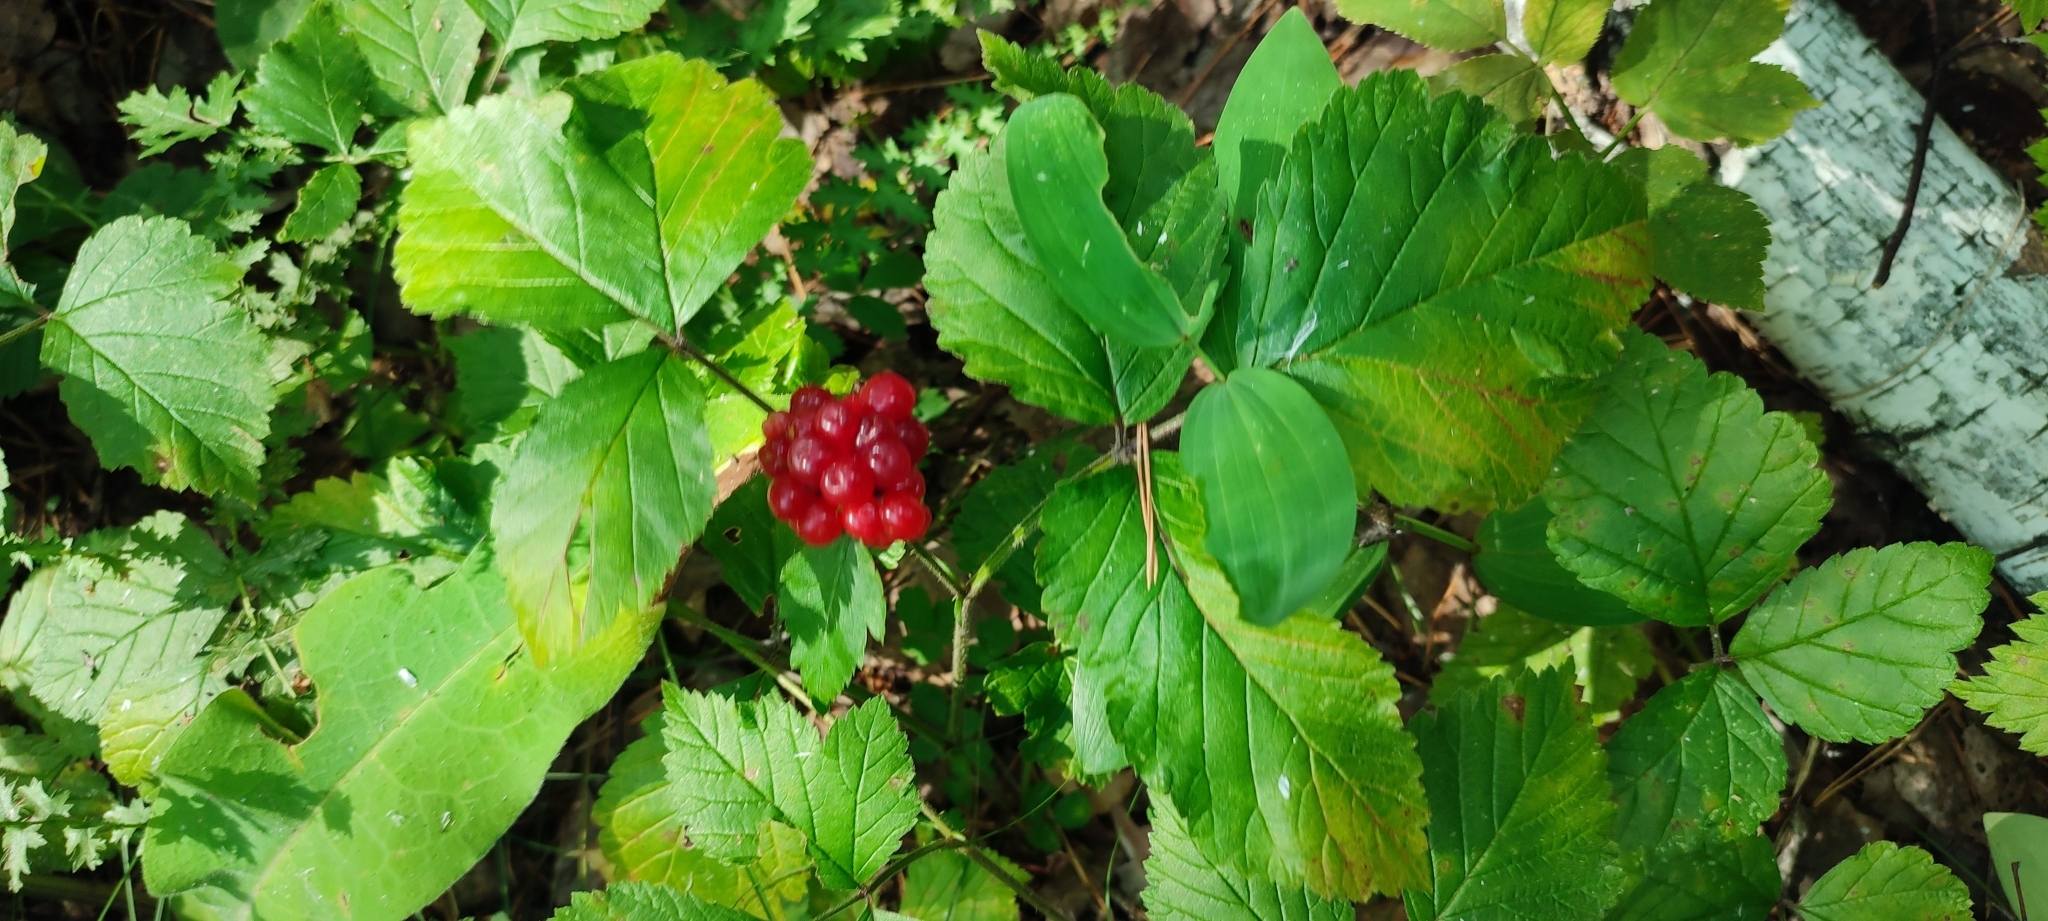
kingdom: Plantae
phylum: Tracheophyta
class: Magnoliopsida
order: Rosales
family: Rosaceae
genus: Rubus
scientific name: Rubus saxatilis
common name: Stone bramble
